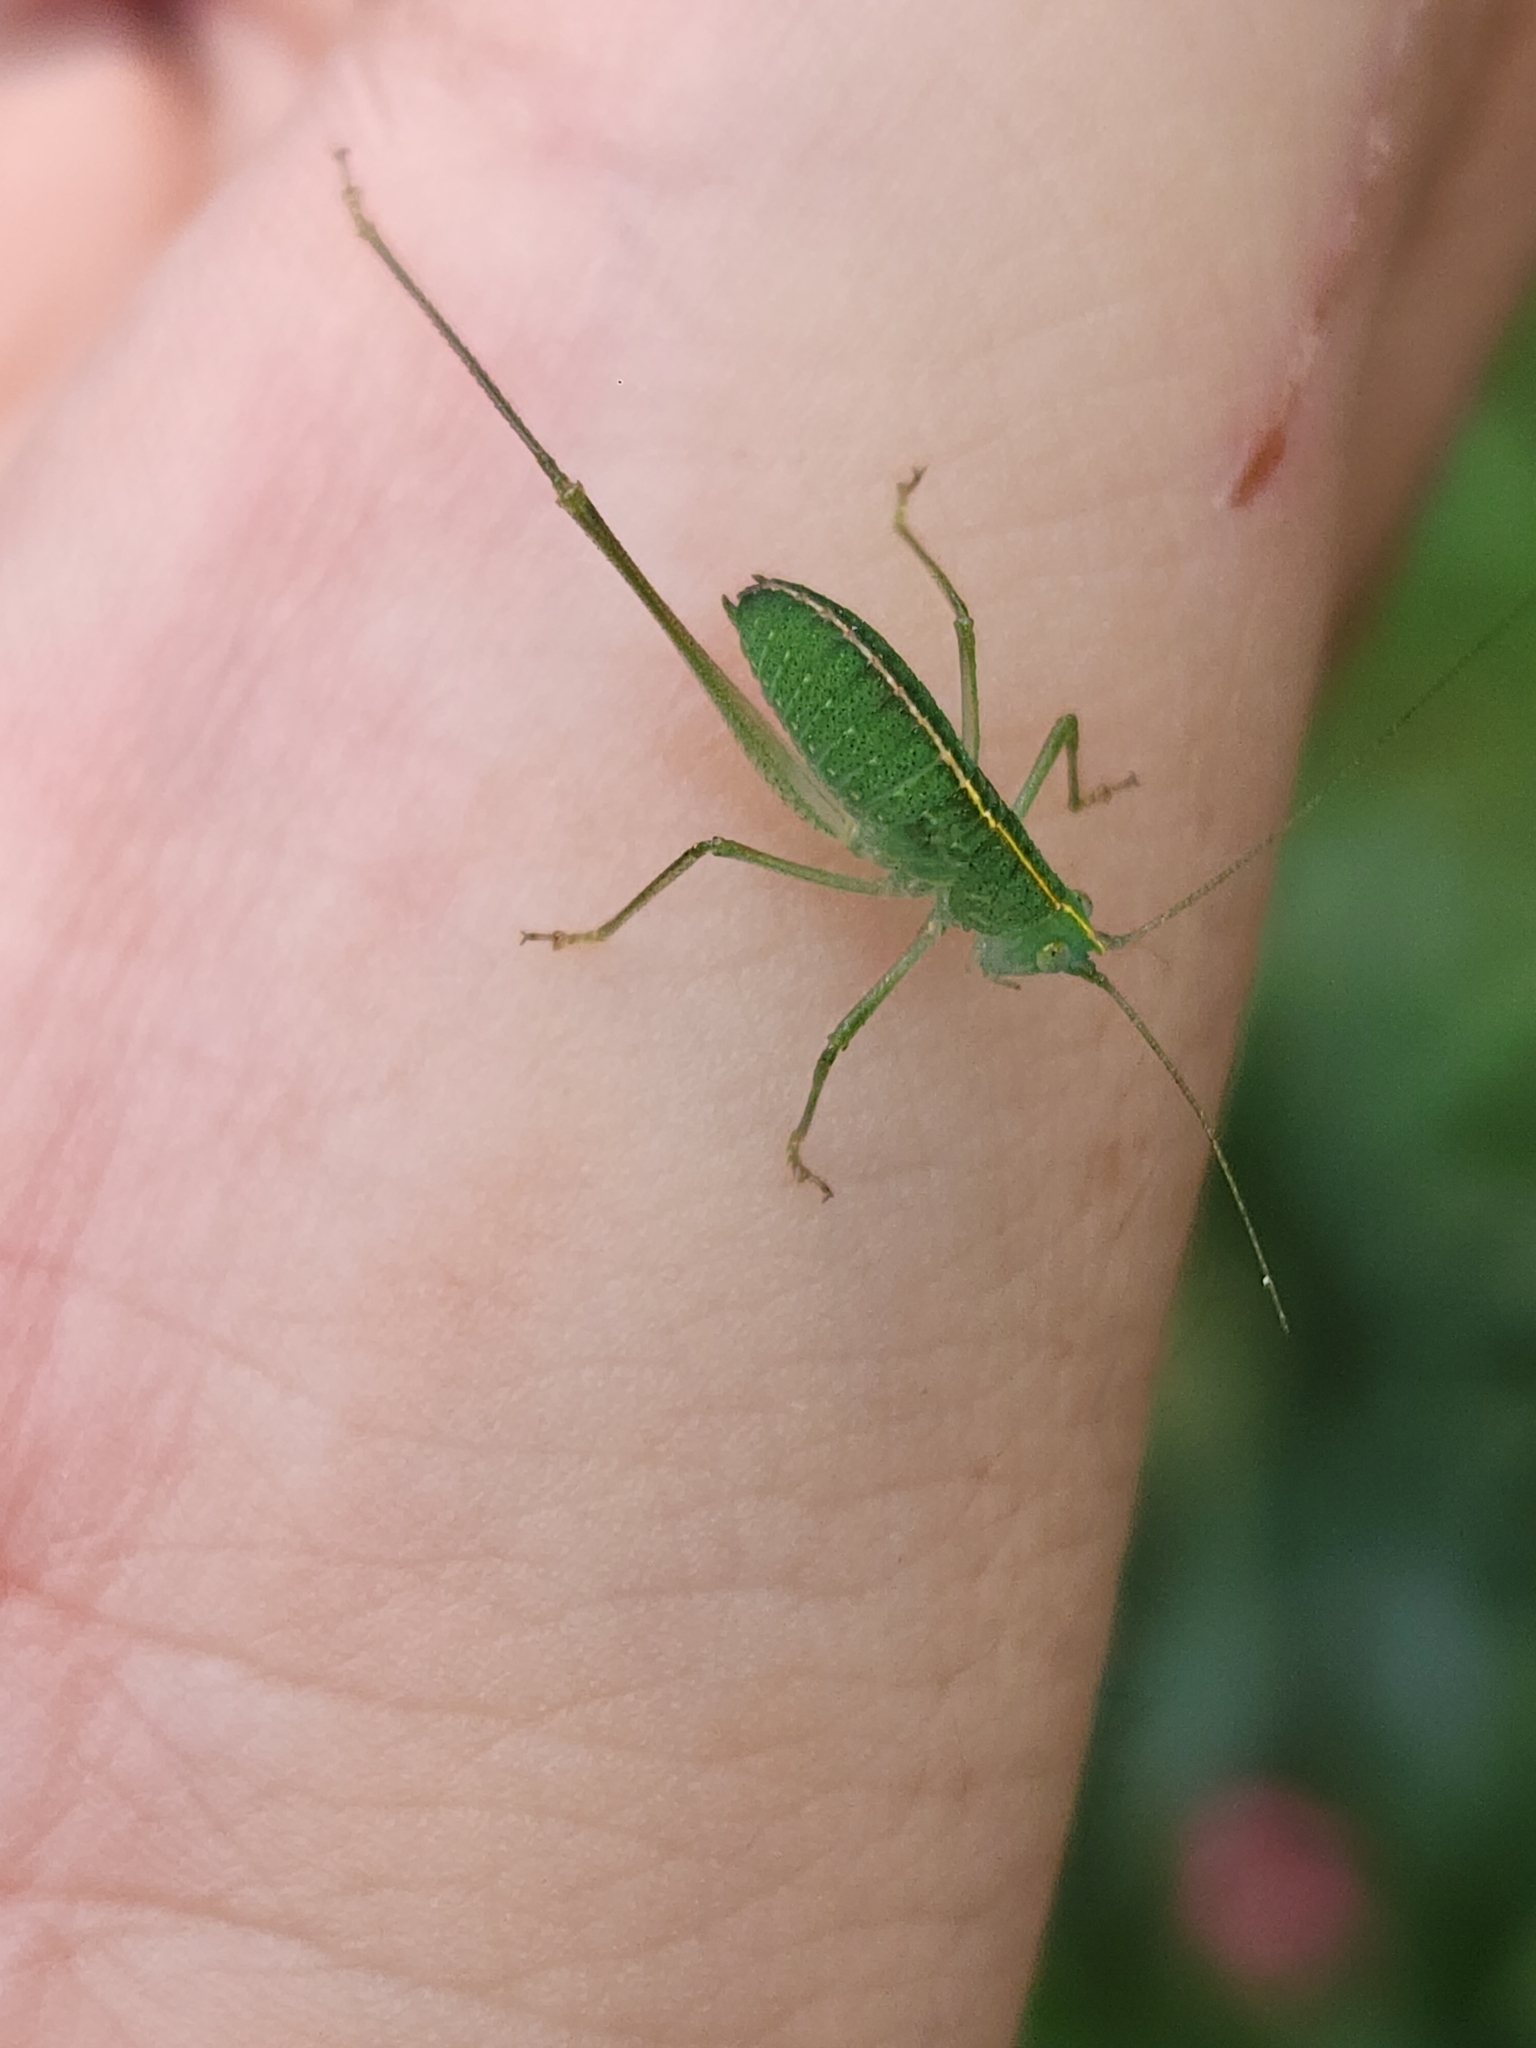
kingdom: Animalia
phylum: Arthropoda
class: Insecta
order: Orthoptera
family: Tettigoniidae
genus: Grammadera
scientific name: Grammadera clara
